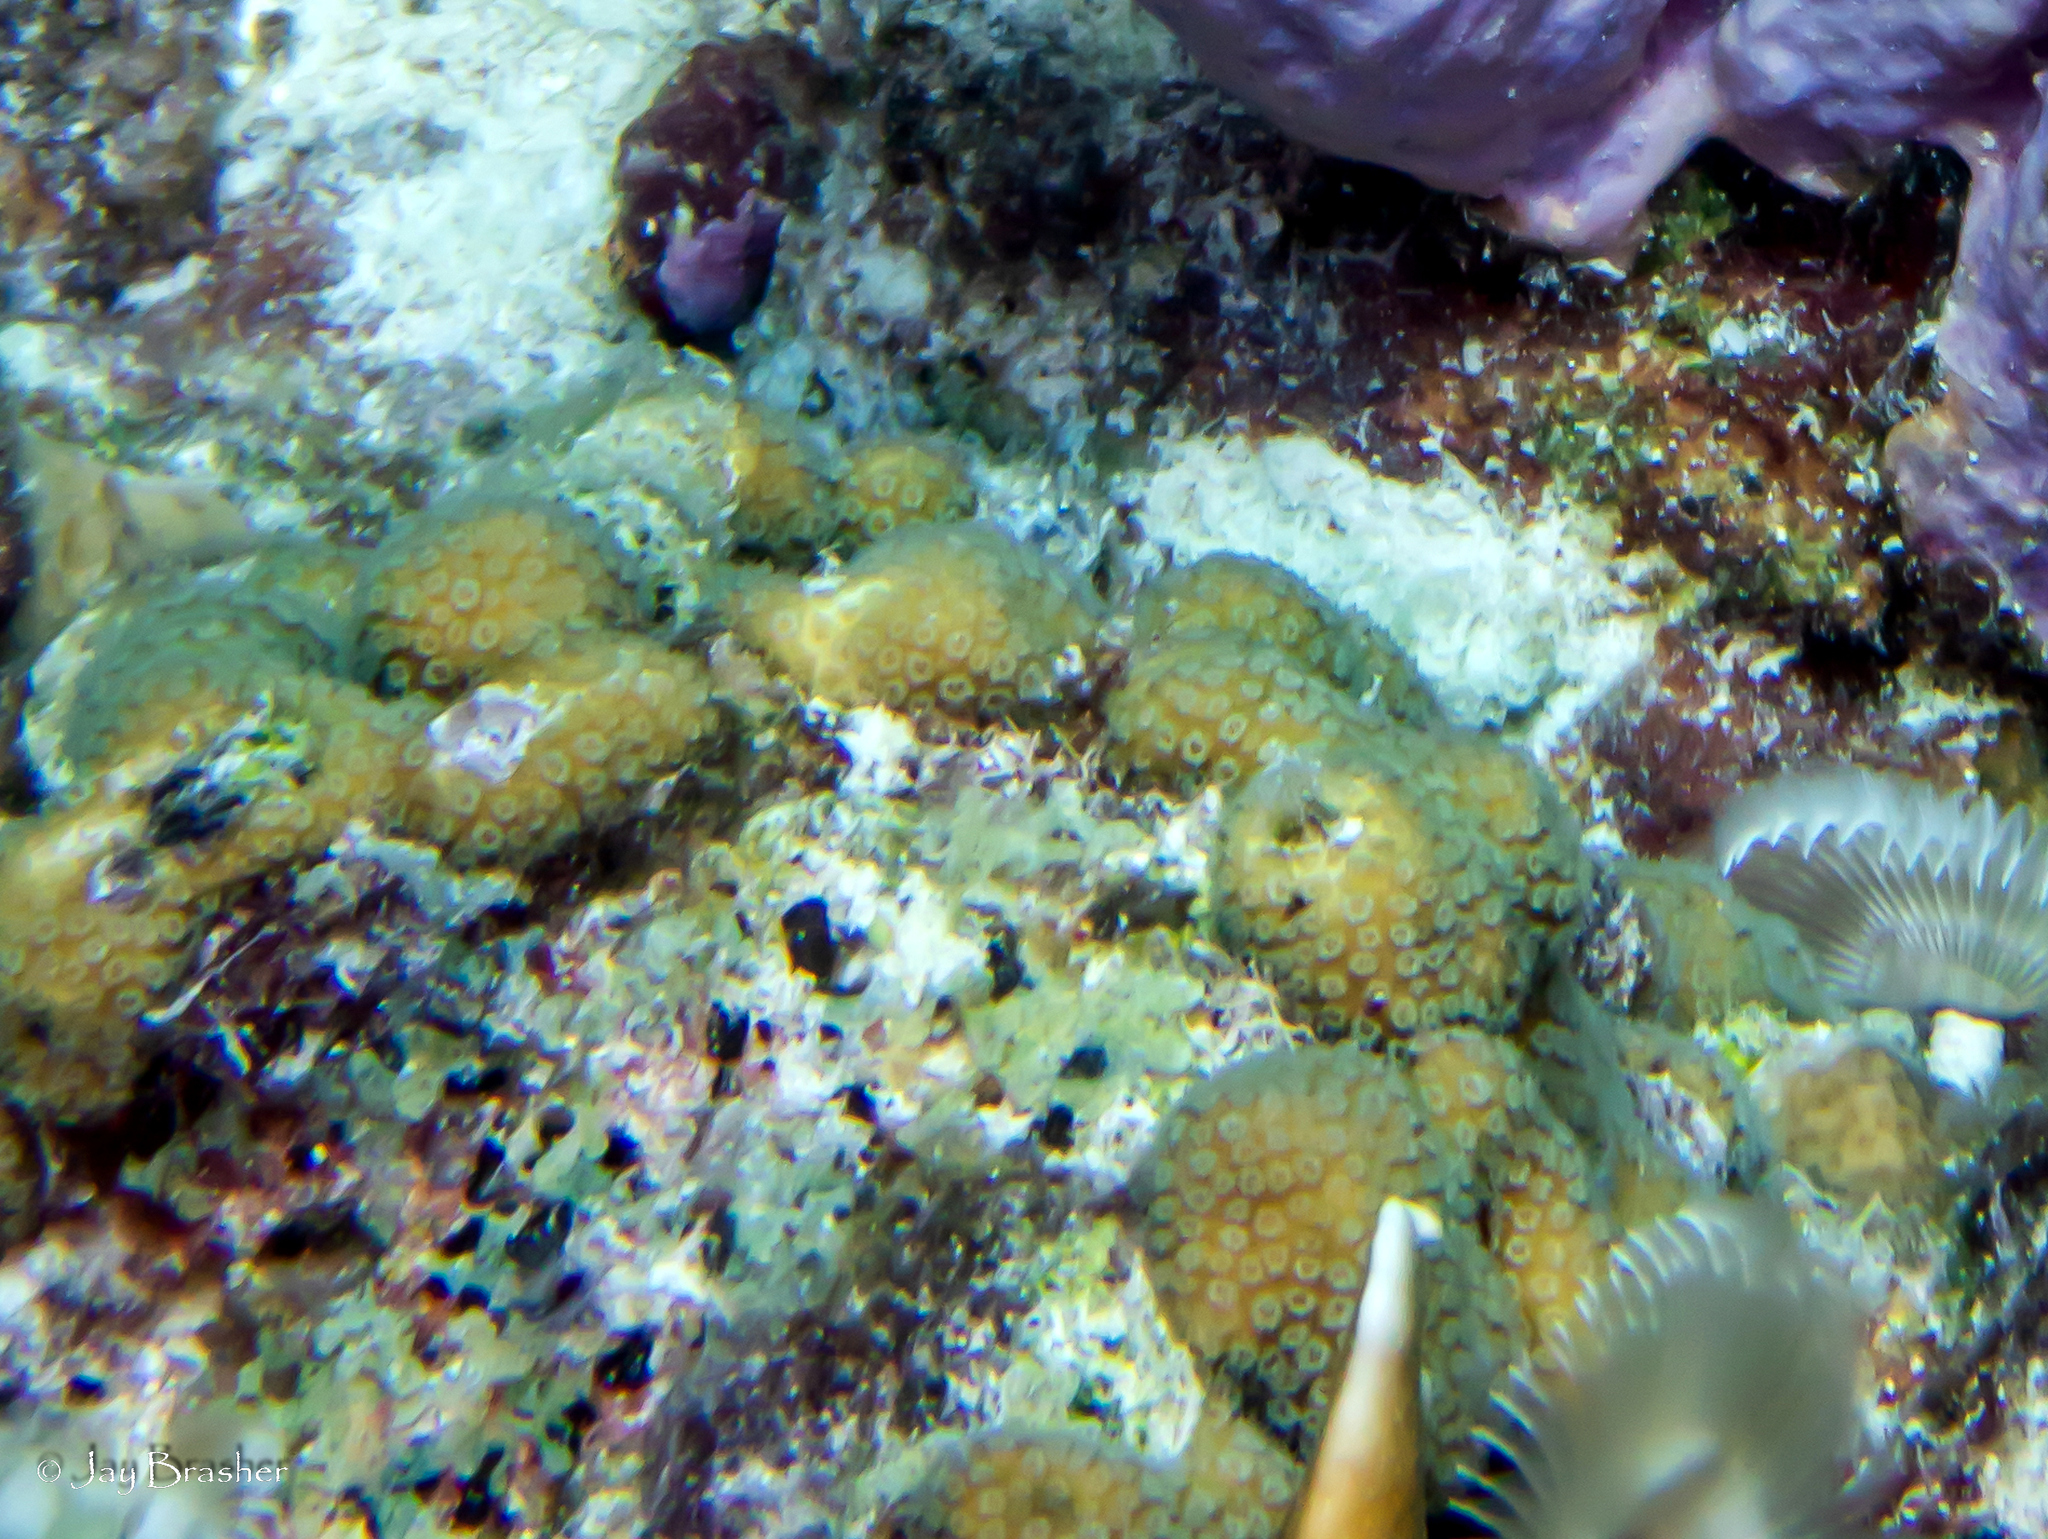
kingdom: Animalia
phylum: Cnidaria
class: Anthozoa
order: Scleractinia
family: Pocilloporidae
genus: Madracis
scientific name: Madracis decactis
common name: Ten-ray star coral
